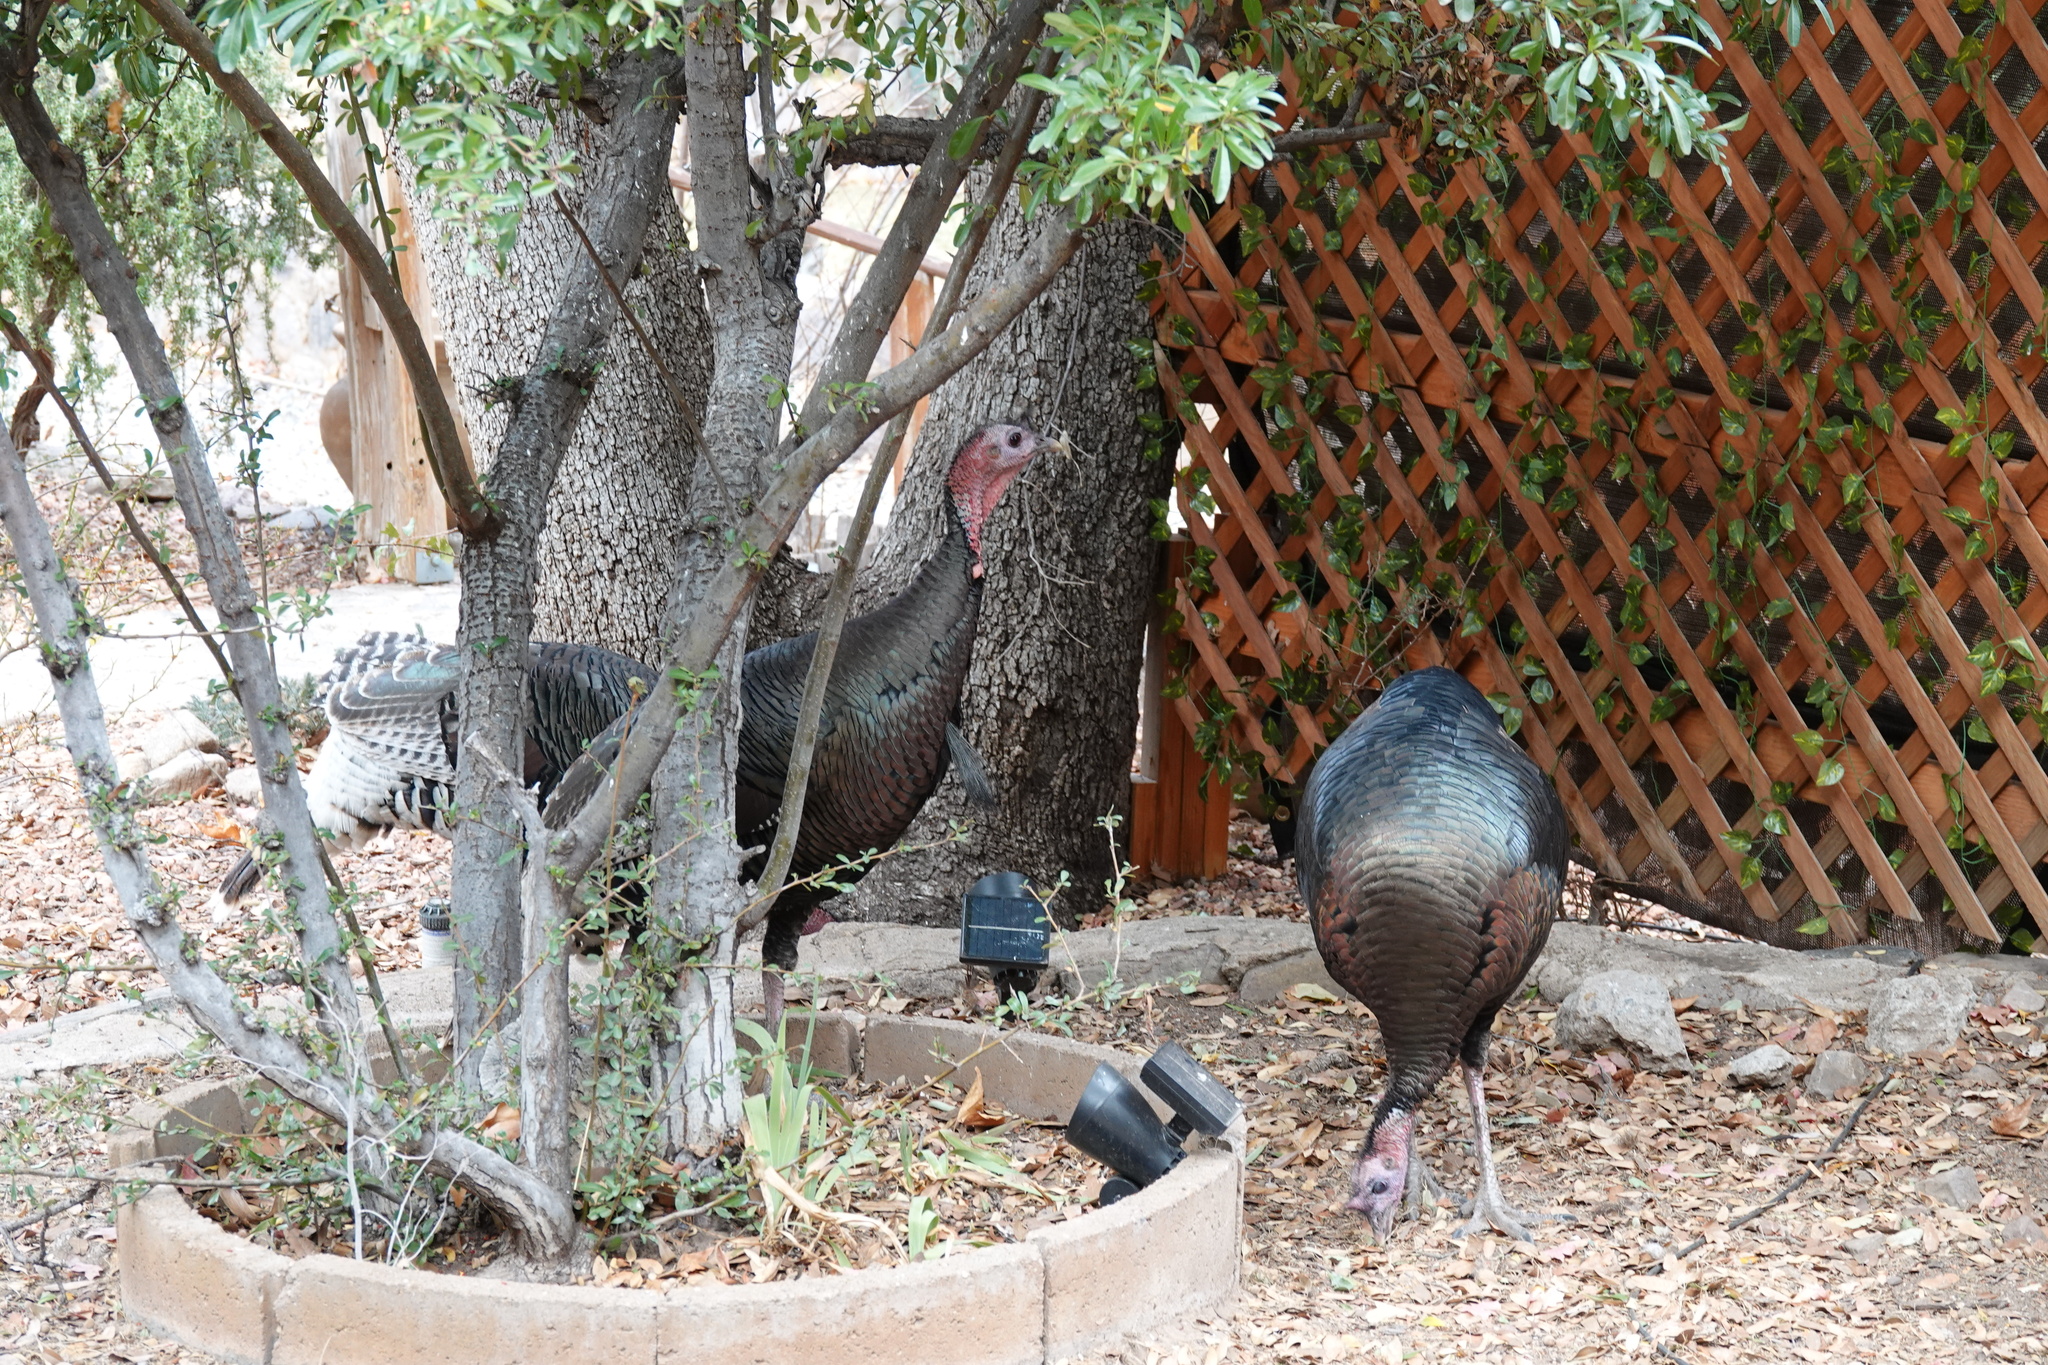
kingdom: Animalia
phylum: Chordata
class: Aves
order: Galliformes
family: Phasianidae
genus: Meleagris
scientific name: Meleagris gallopavo
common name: Wild turkey
